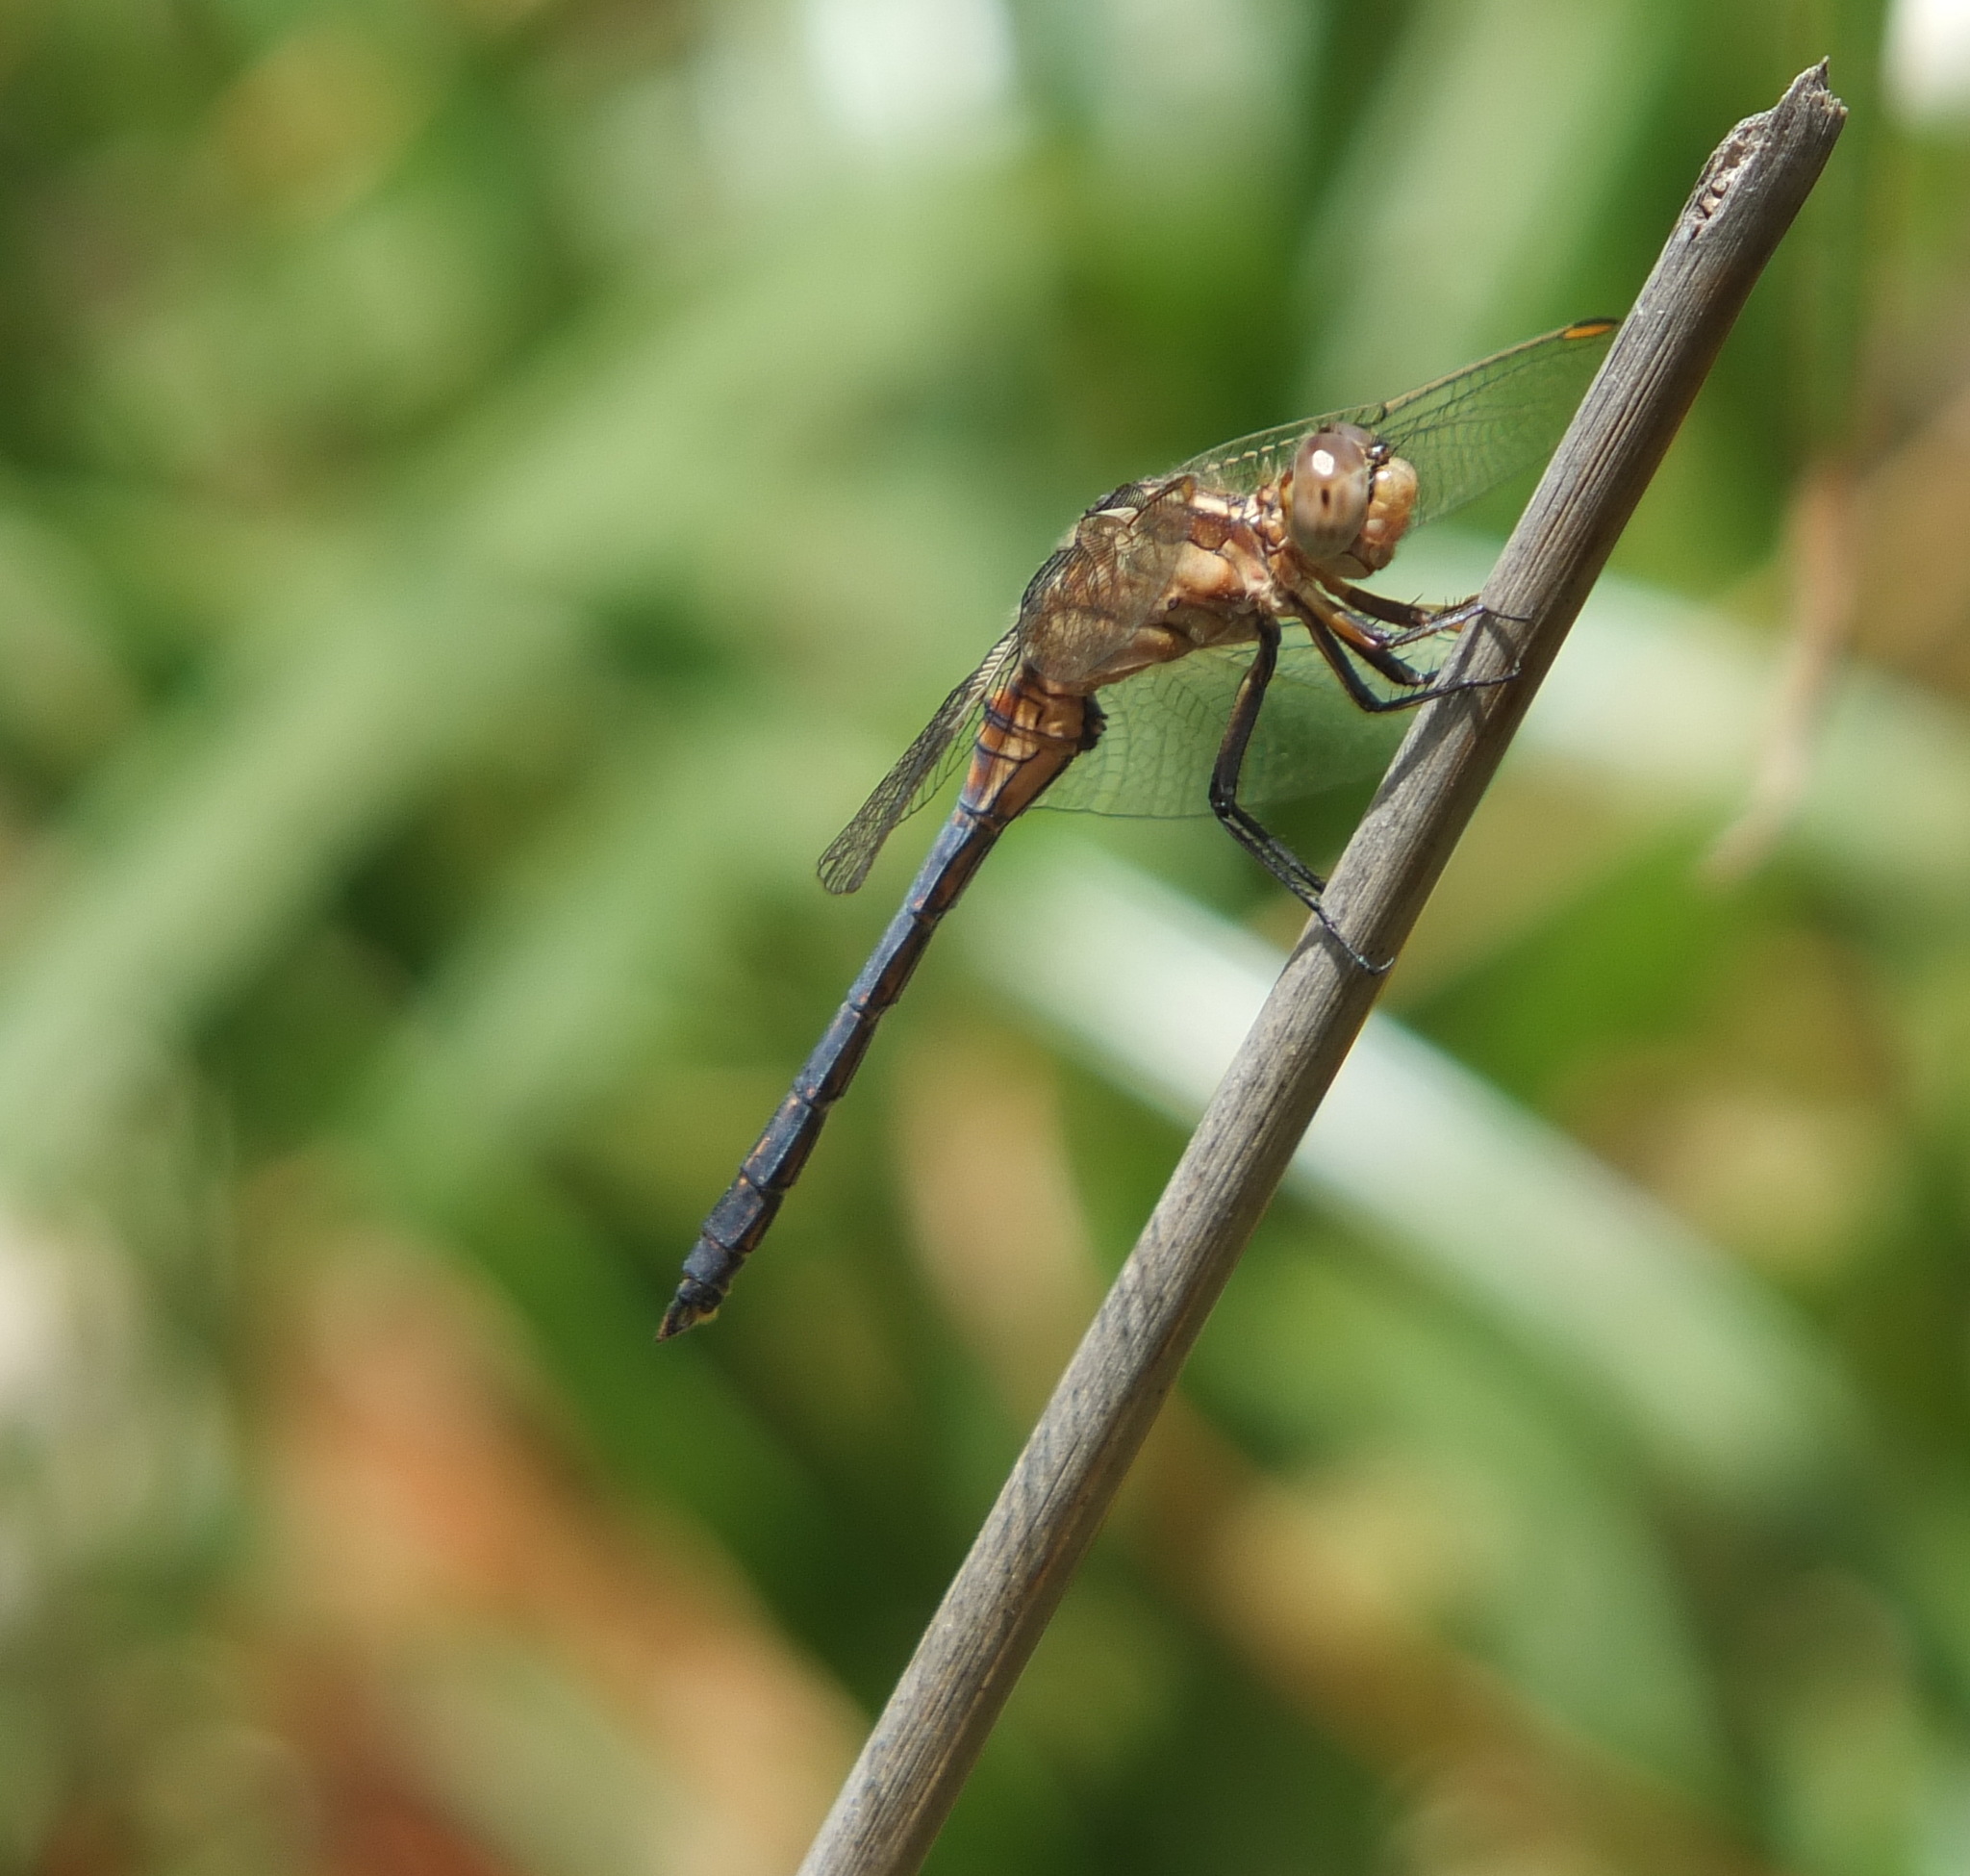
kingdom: Animalia
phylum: Arthropoda
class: Insecta
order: Odonata
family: Libellulidae
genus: Orthetrum
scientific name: Orthetrum coerulescens
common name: Keeled skimmer
